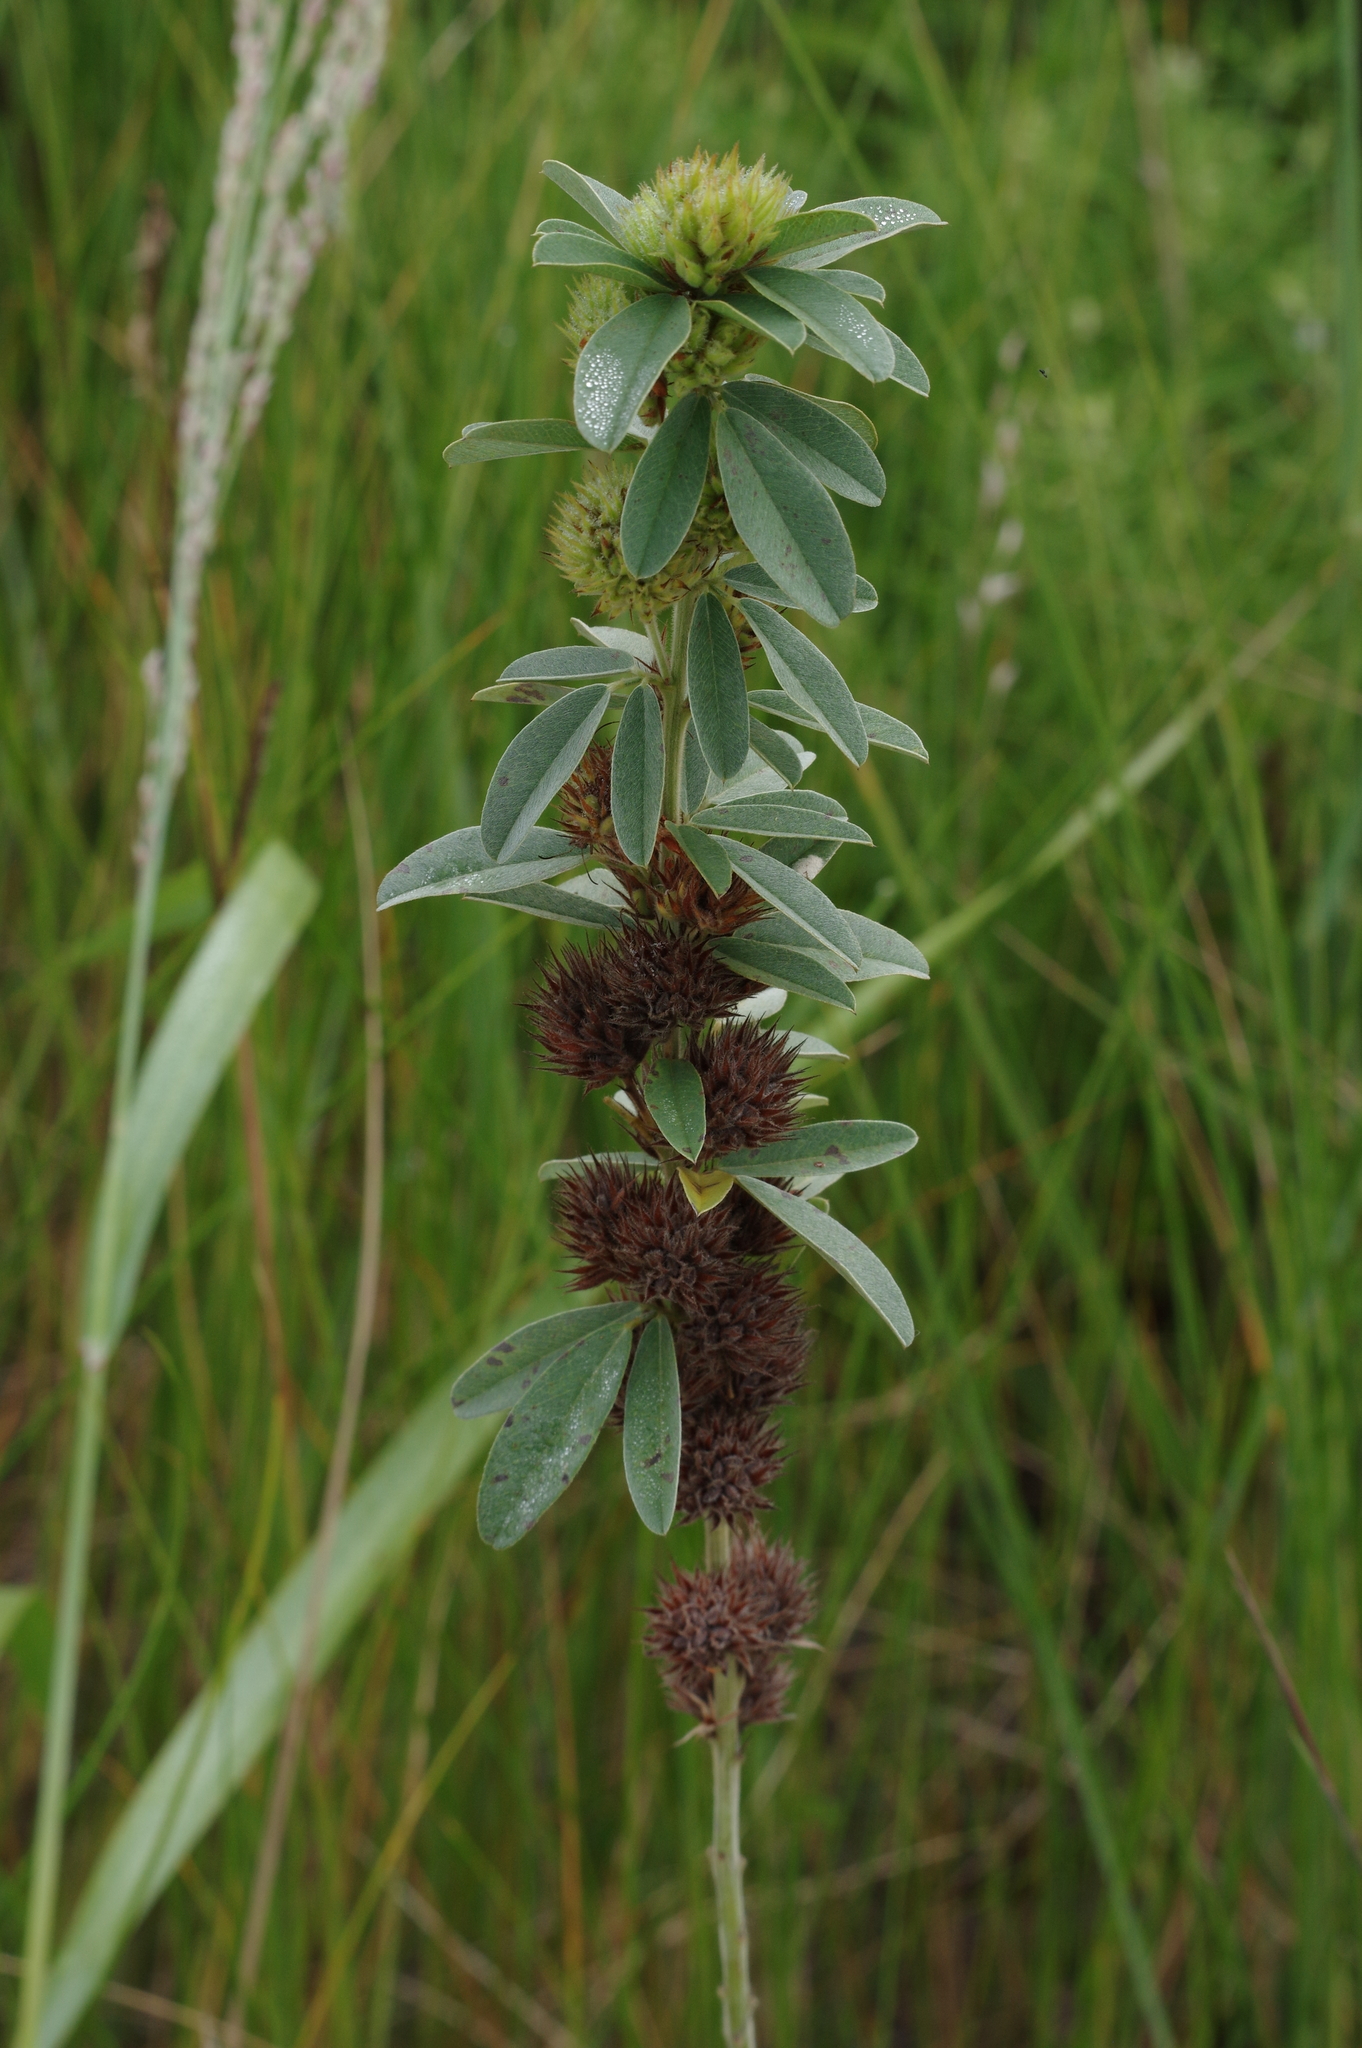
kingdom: Plantae
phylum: Tracheophyta
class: Magnoliopsida
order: Fabales
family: Fabaceae
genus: Lespedeza
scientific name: Lespedeza capitata
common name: Dusty clover
